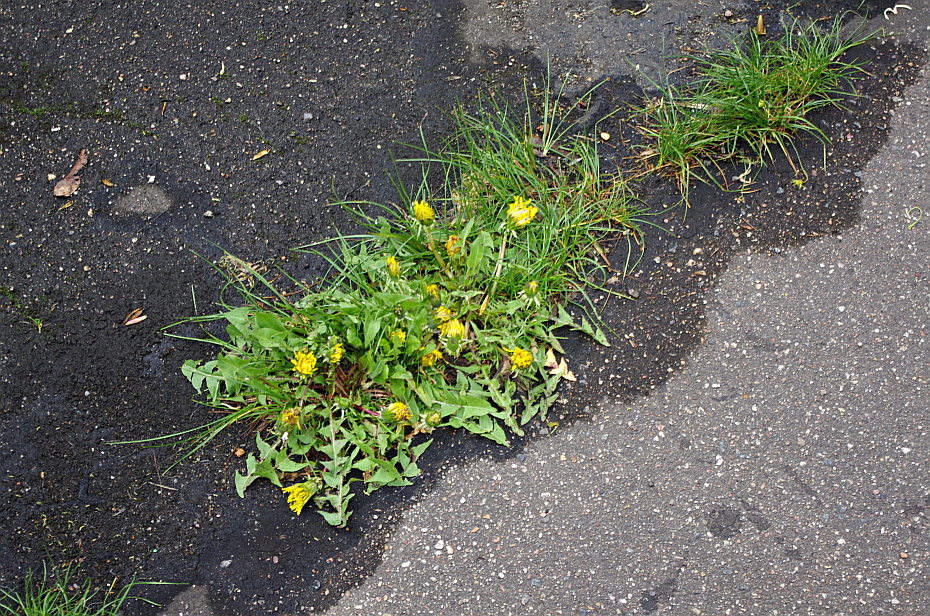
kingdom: Plantae
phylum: Tracheophyta
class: Magnoliopsida
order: Asterales
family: Asteraceae
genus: Taraxacum
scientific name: Taraxacum officinale
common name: Common dandelion
